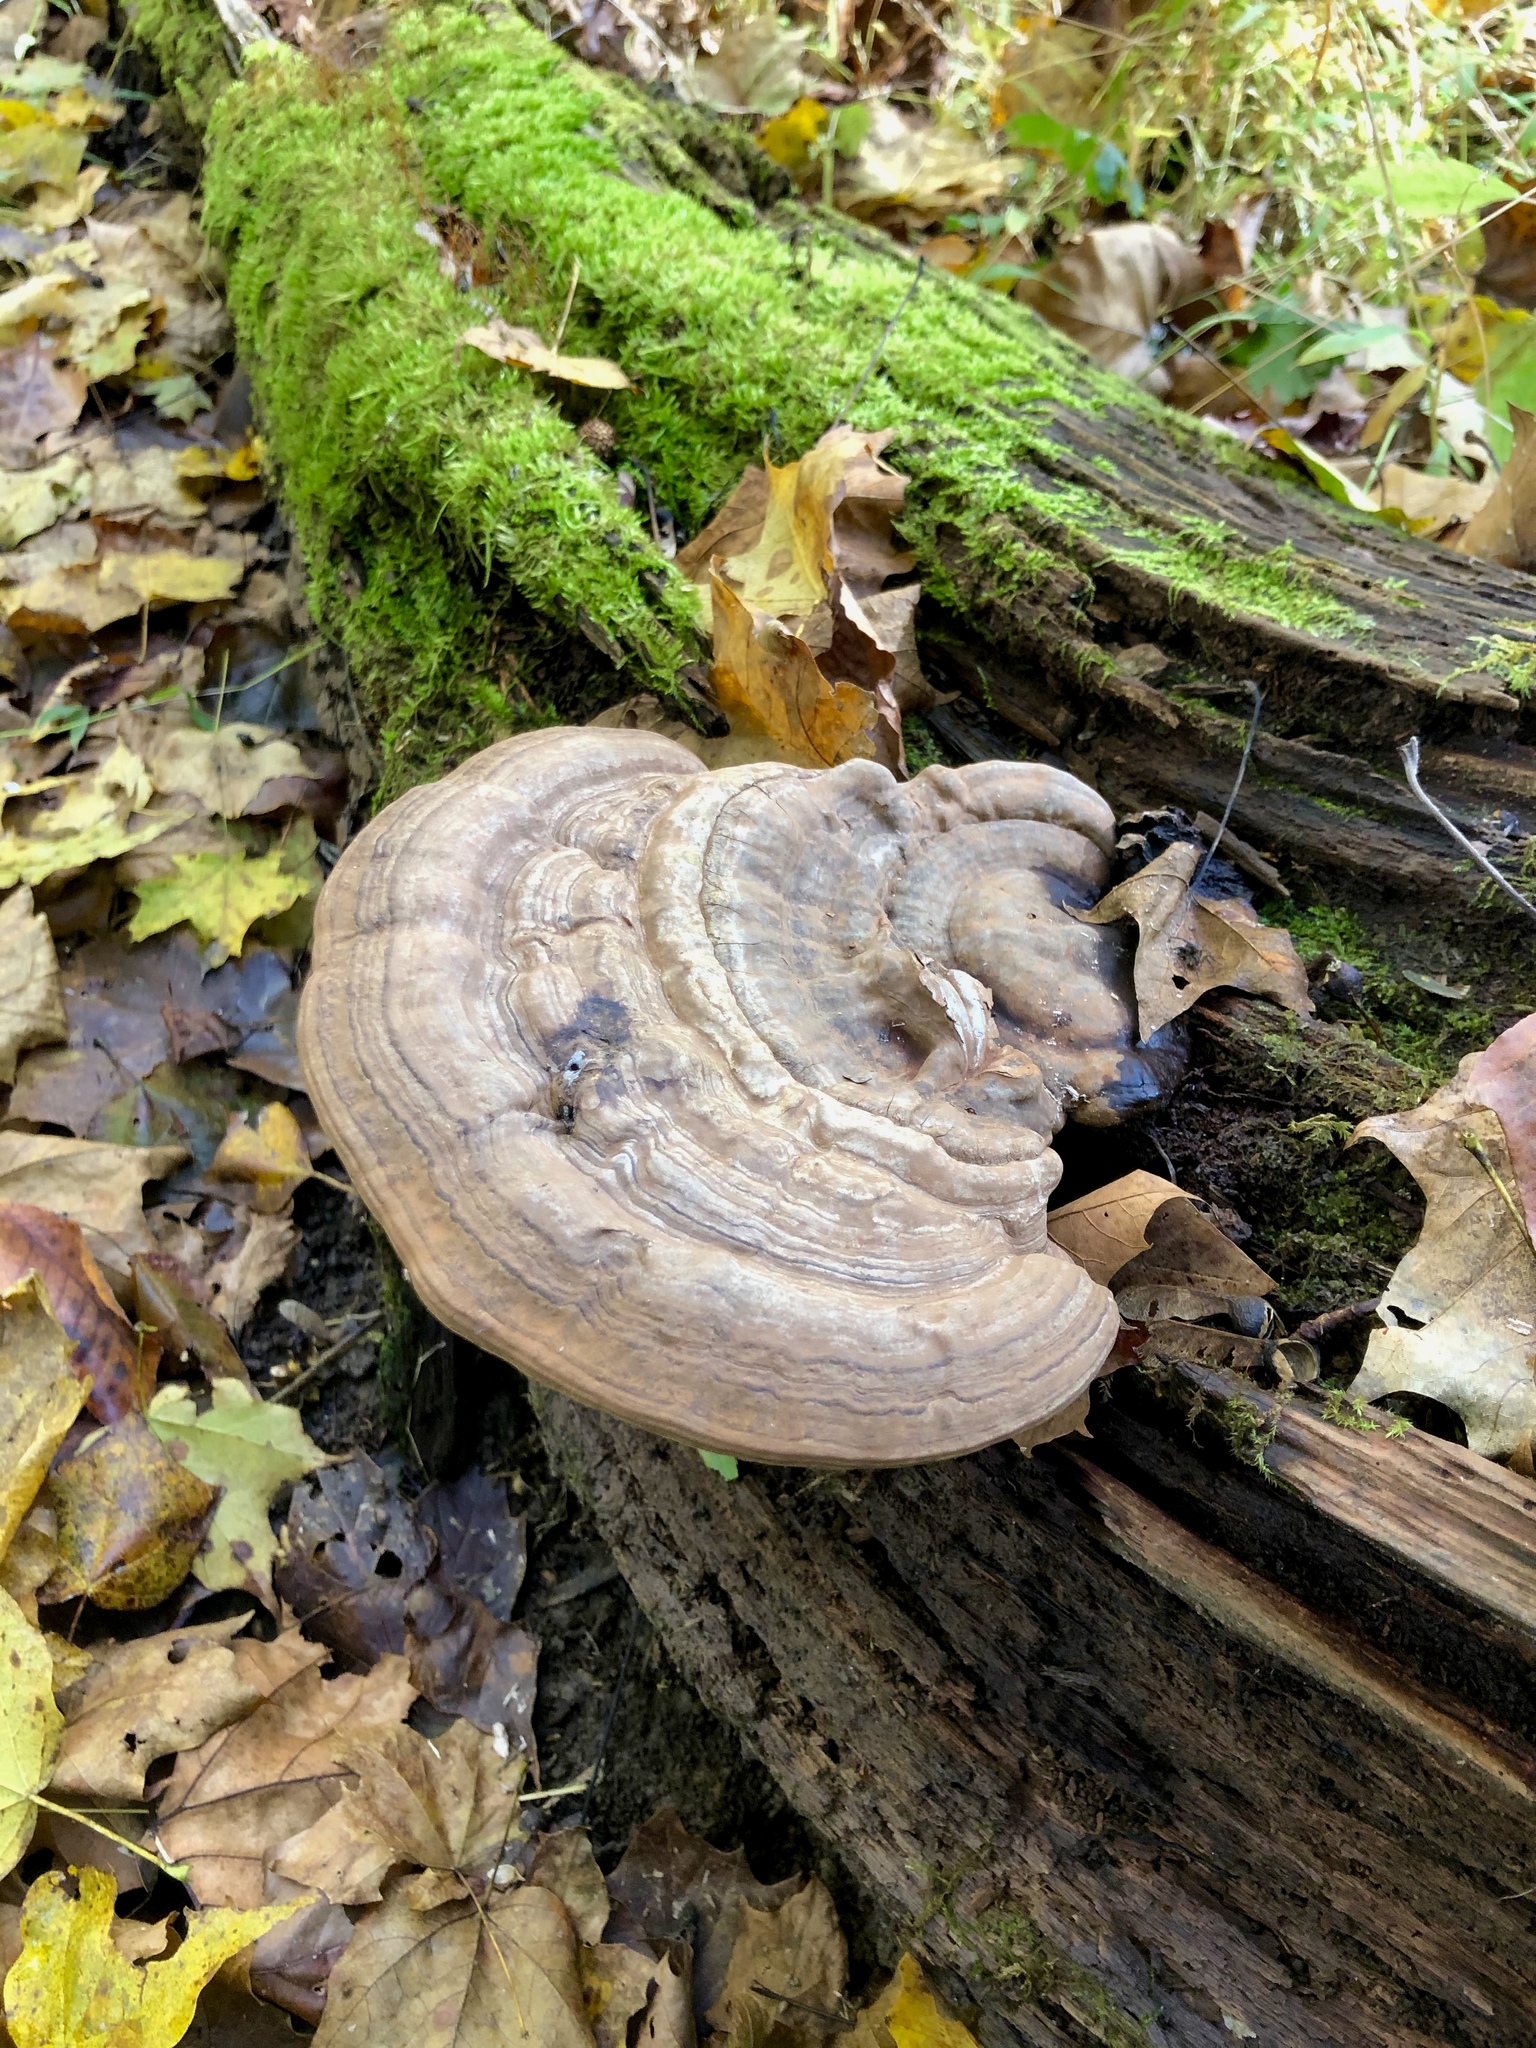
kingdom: Fungi
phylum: Basidiomycota
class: Agaricomycetes
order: Polyporales
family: Polyporaceae
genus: Ganoderma
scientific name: Ganoderma applanatum
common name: Artist's bracket
